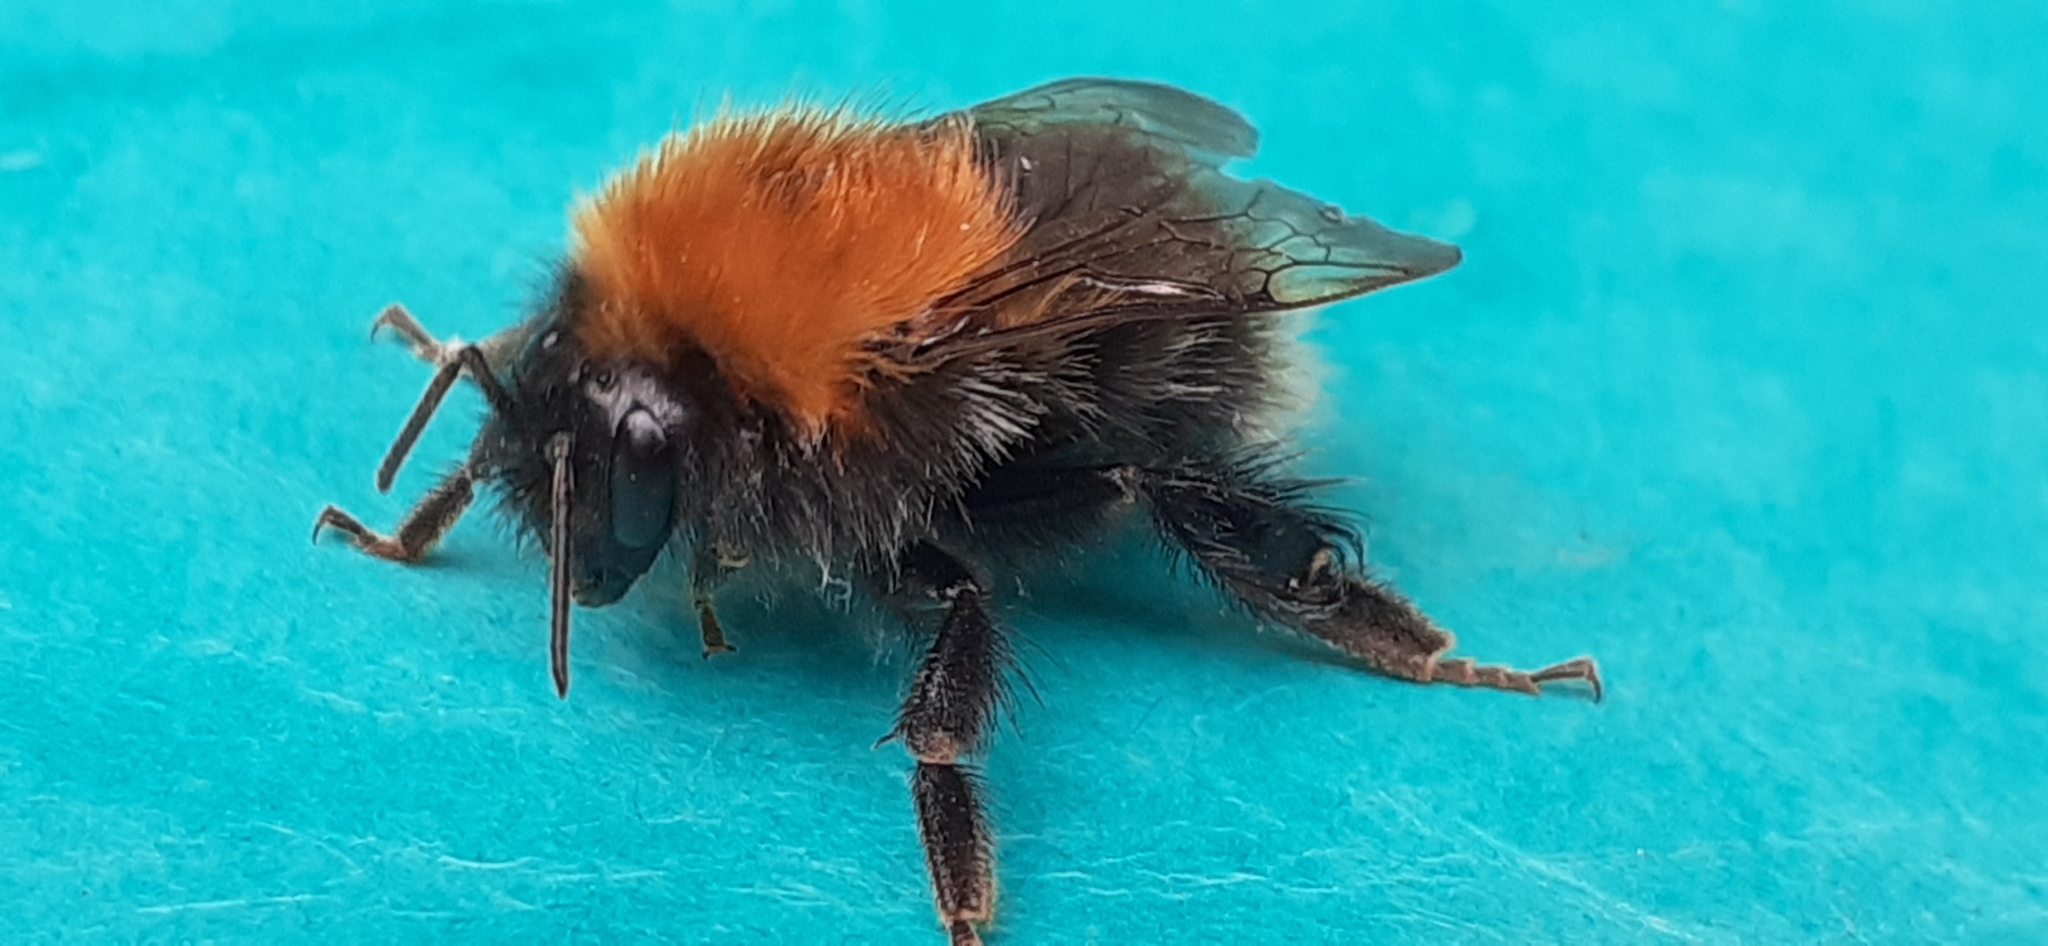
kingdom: Animalia
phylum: Arthropoda
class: Insecta
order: Hymenoptera
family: Apidae
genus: Bombus
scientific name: Bombus hypnorum
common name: New garden bumblebee
